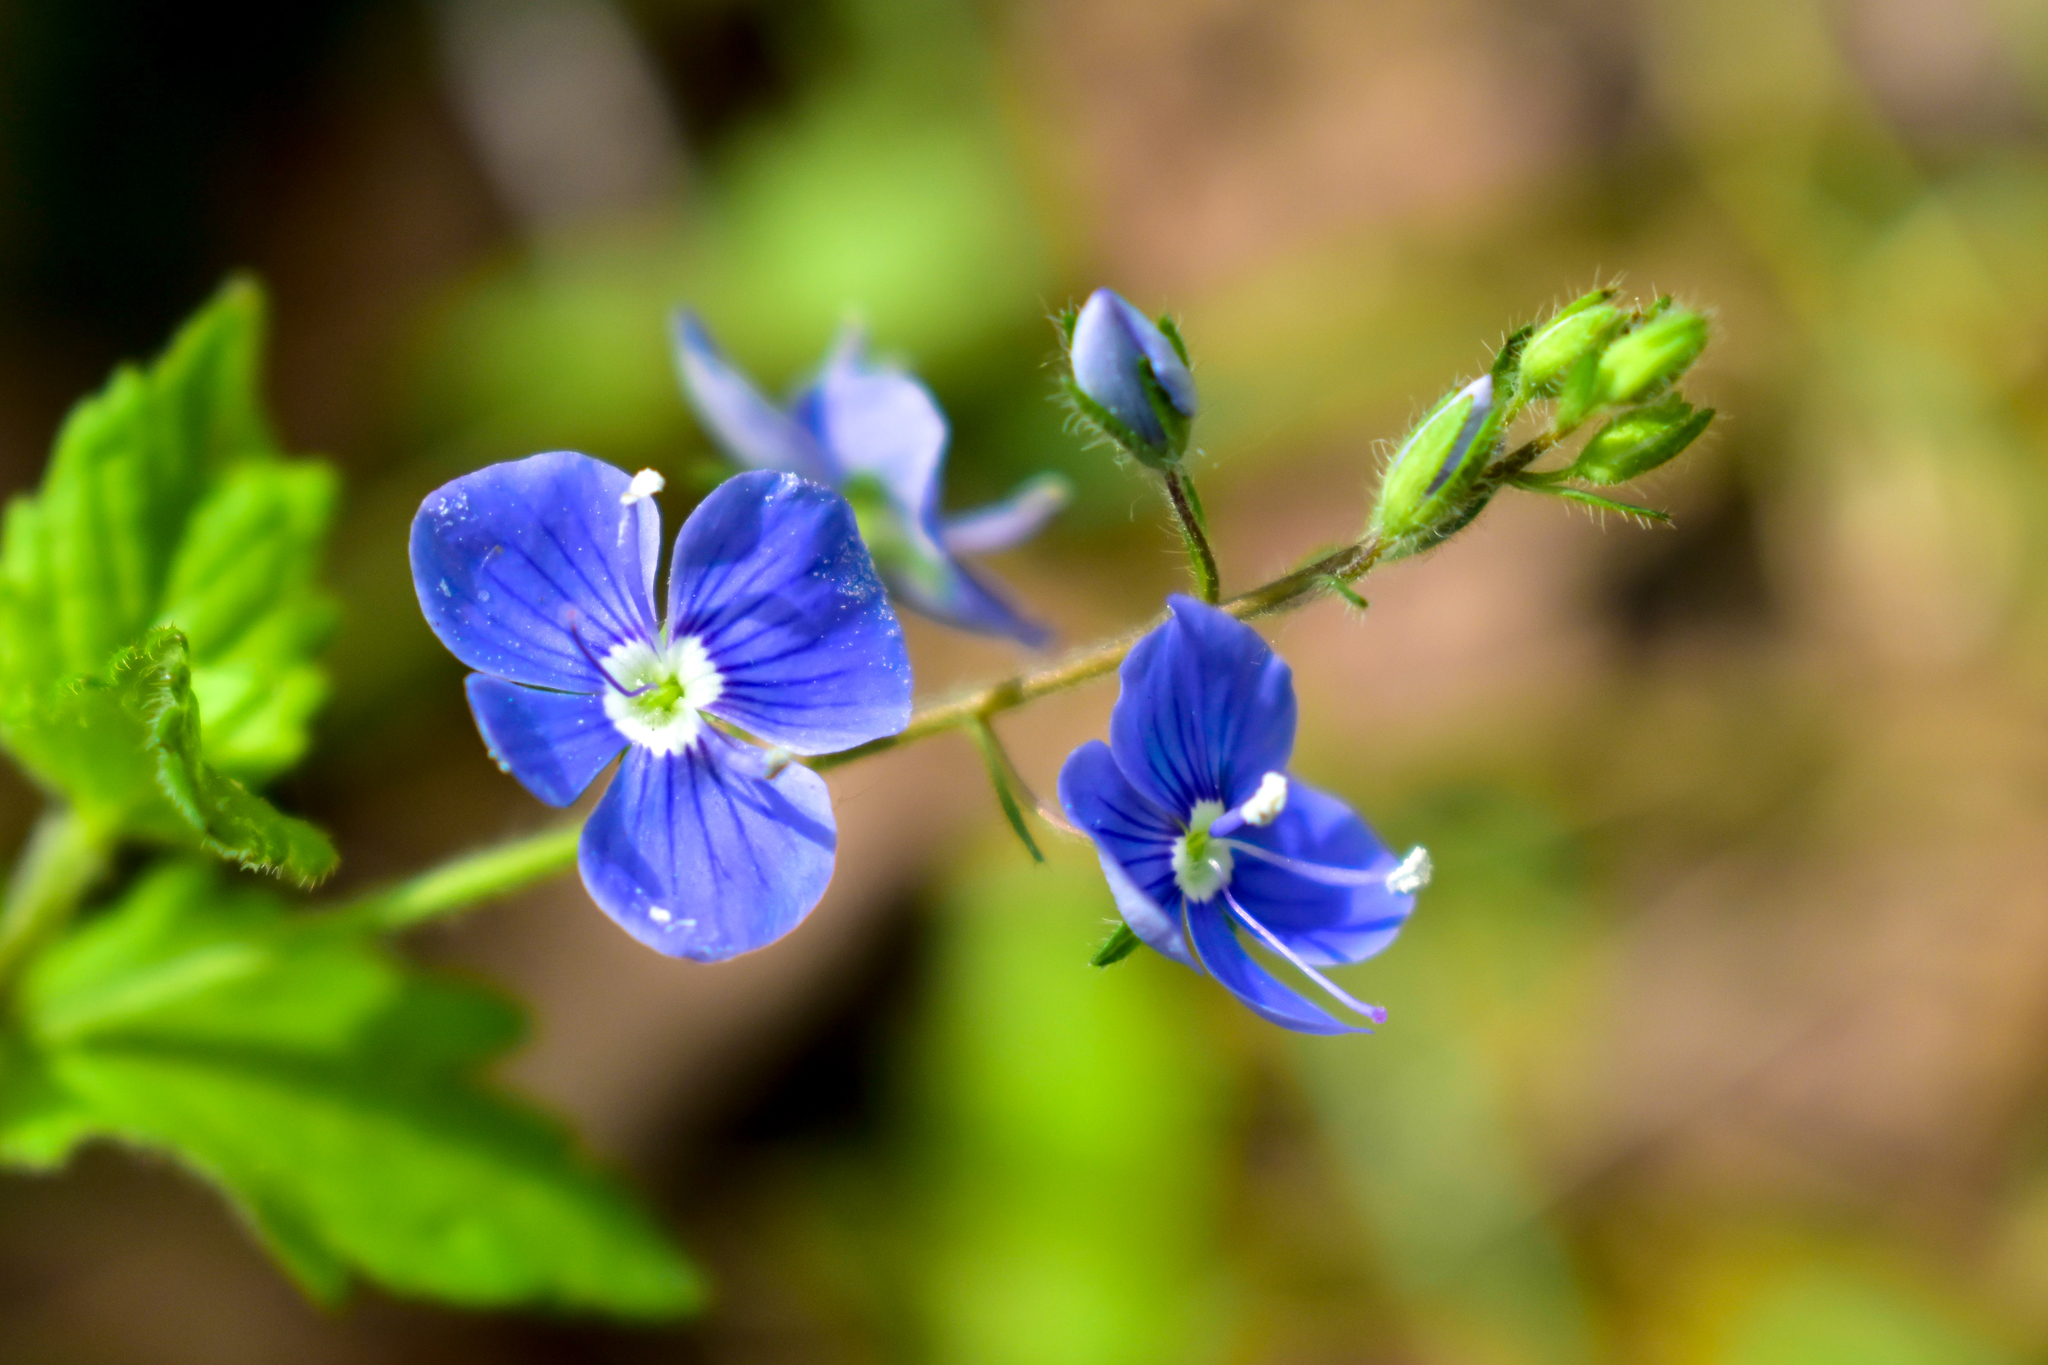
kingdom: Plantae
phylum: Tracheophyta
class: Magnoliopsida
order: Lamiales
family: Plantaginaceae
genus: Veronica
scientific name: Veronica chamaedrys
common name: Germander speedwell
